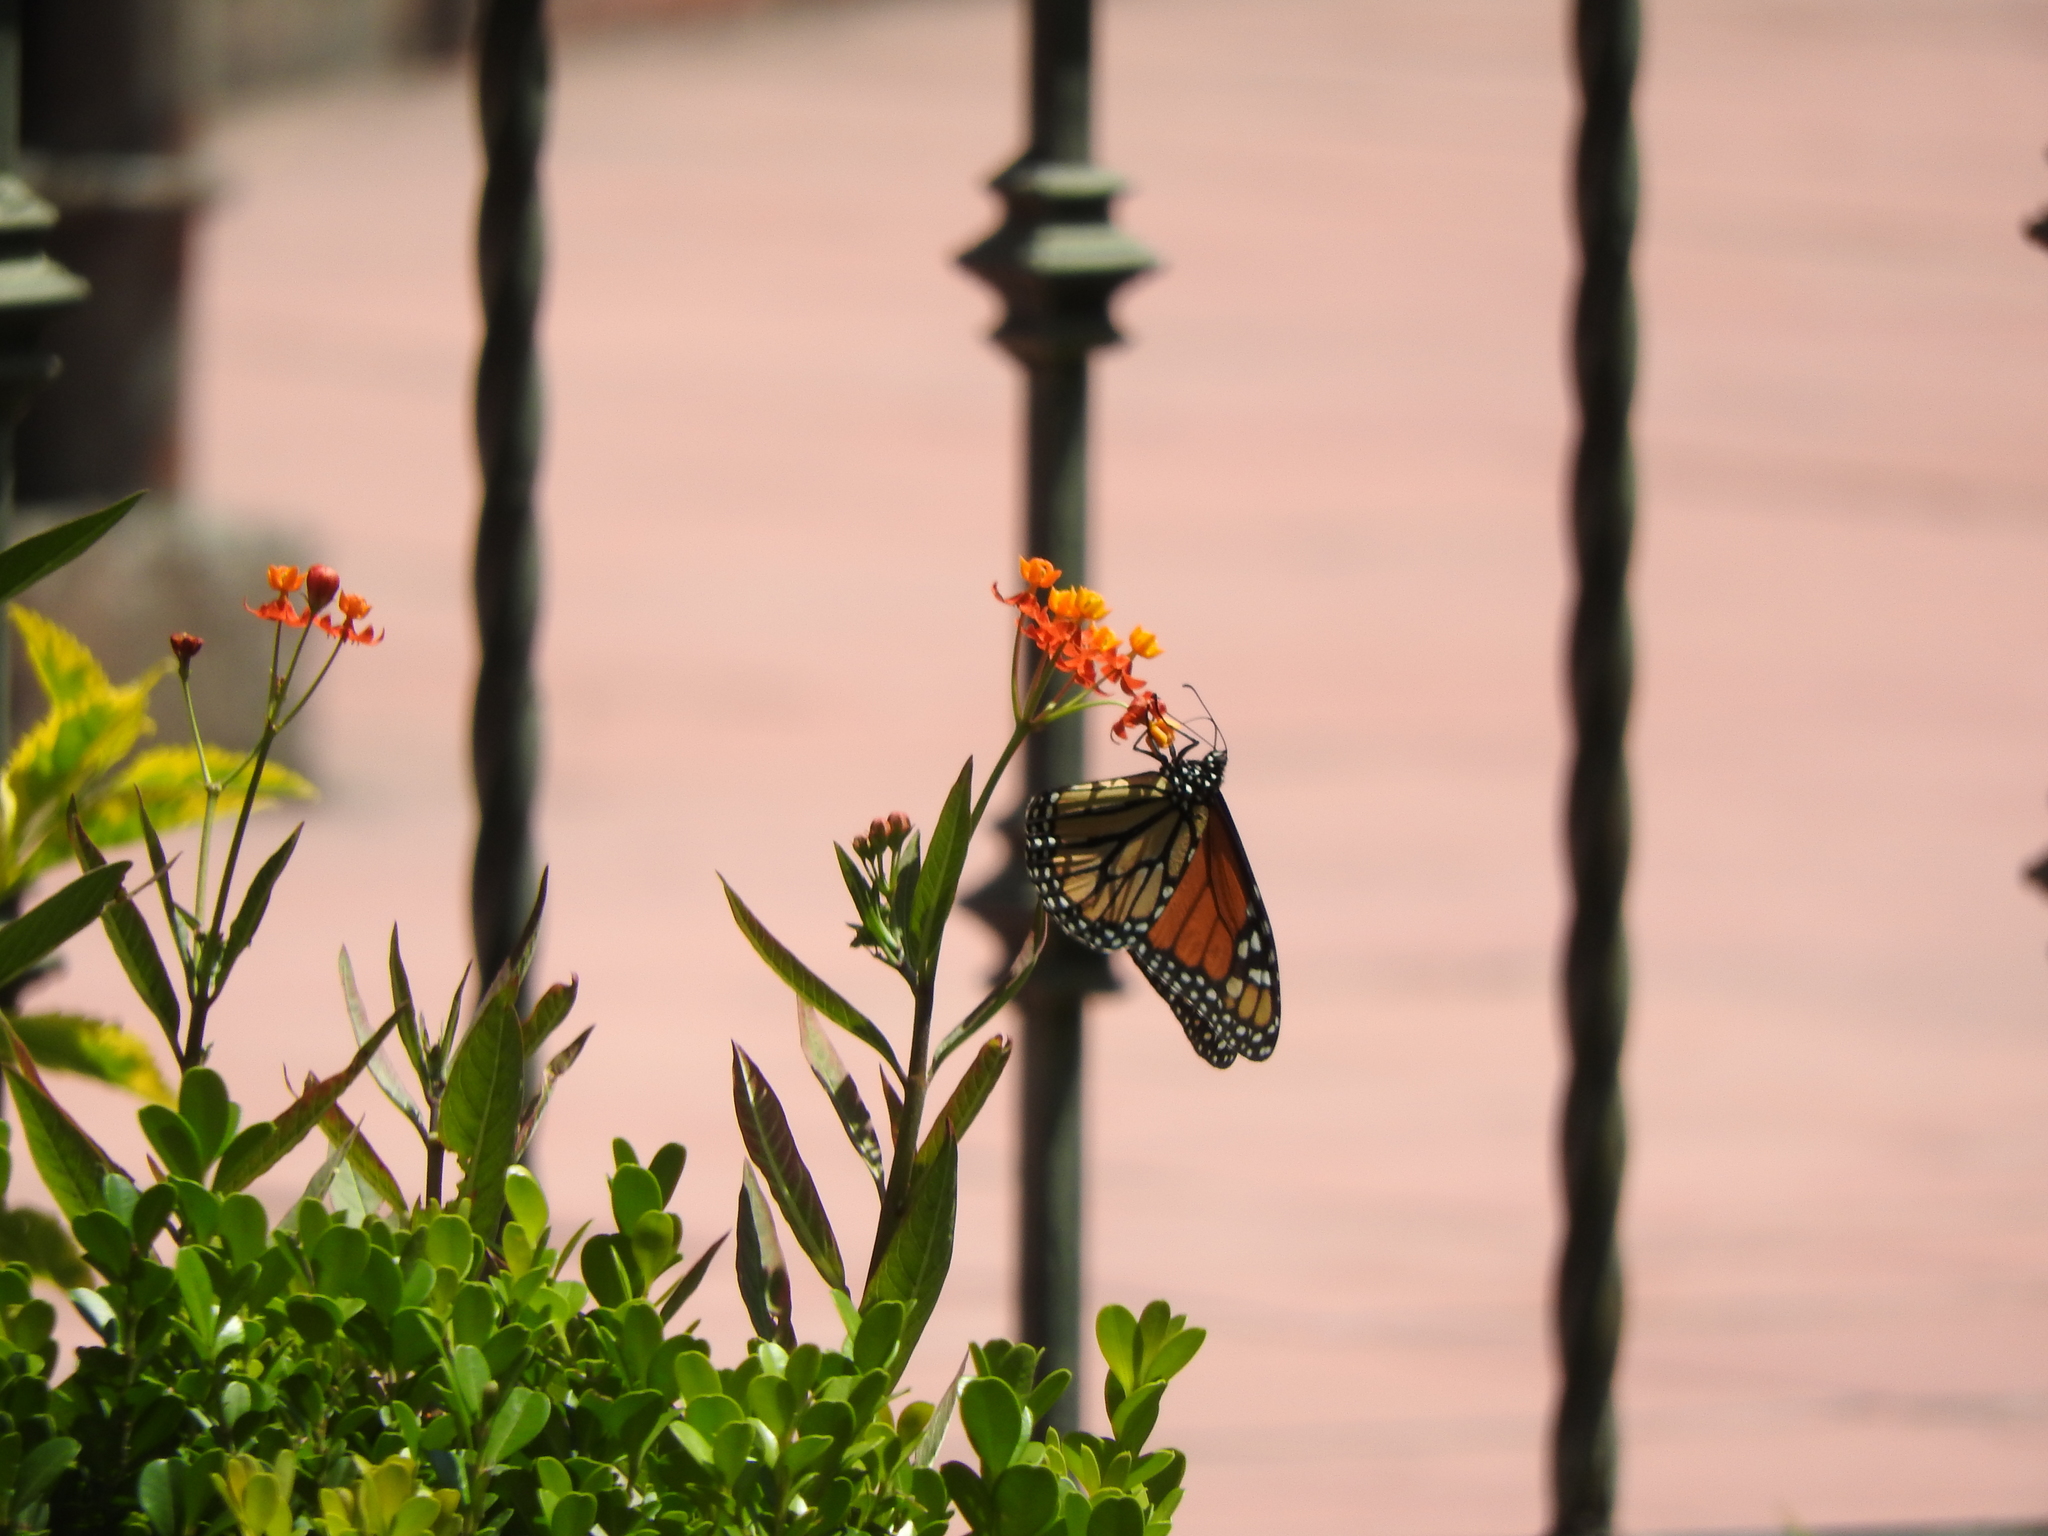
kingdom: Animalia
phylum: Arthropoda
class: Insecta
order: Lepidoptera
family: Nymphalidae
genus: Danaus
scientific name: Danaus plexippus
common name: Monarch
